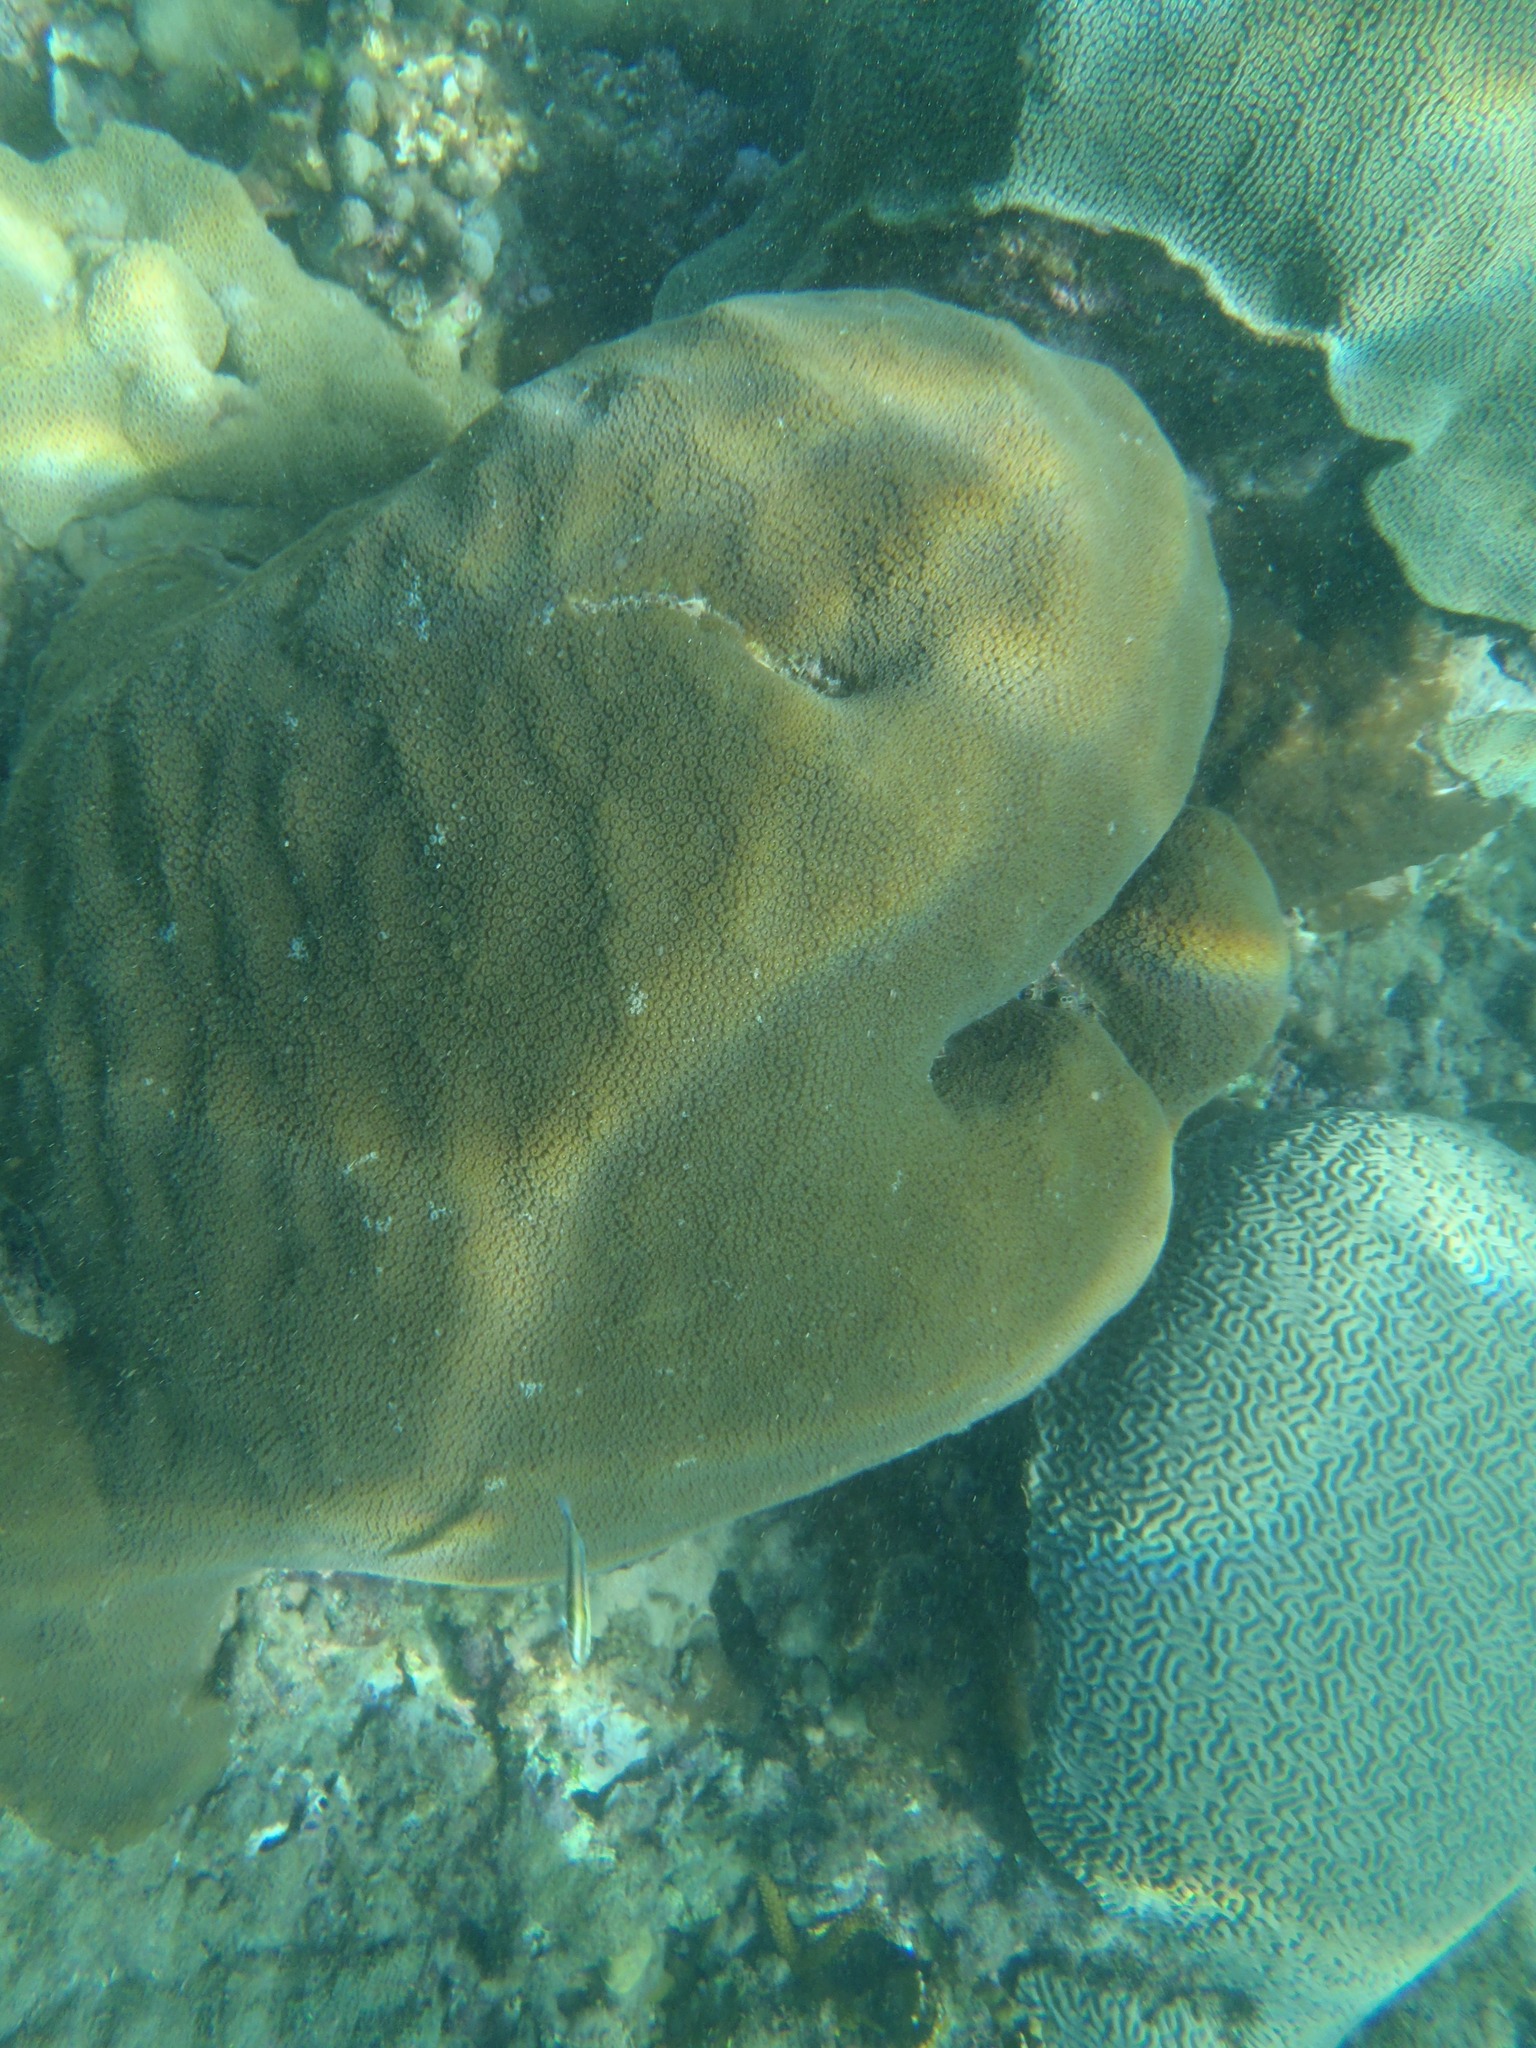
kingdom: Animalia
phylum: Cnidaria
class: Anthozoa
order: Scleractinia
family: Merulinidae
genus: Orbicella
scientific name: Orbicella faveolata
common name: Mountainous star coral
